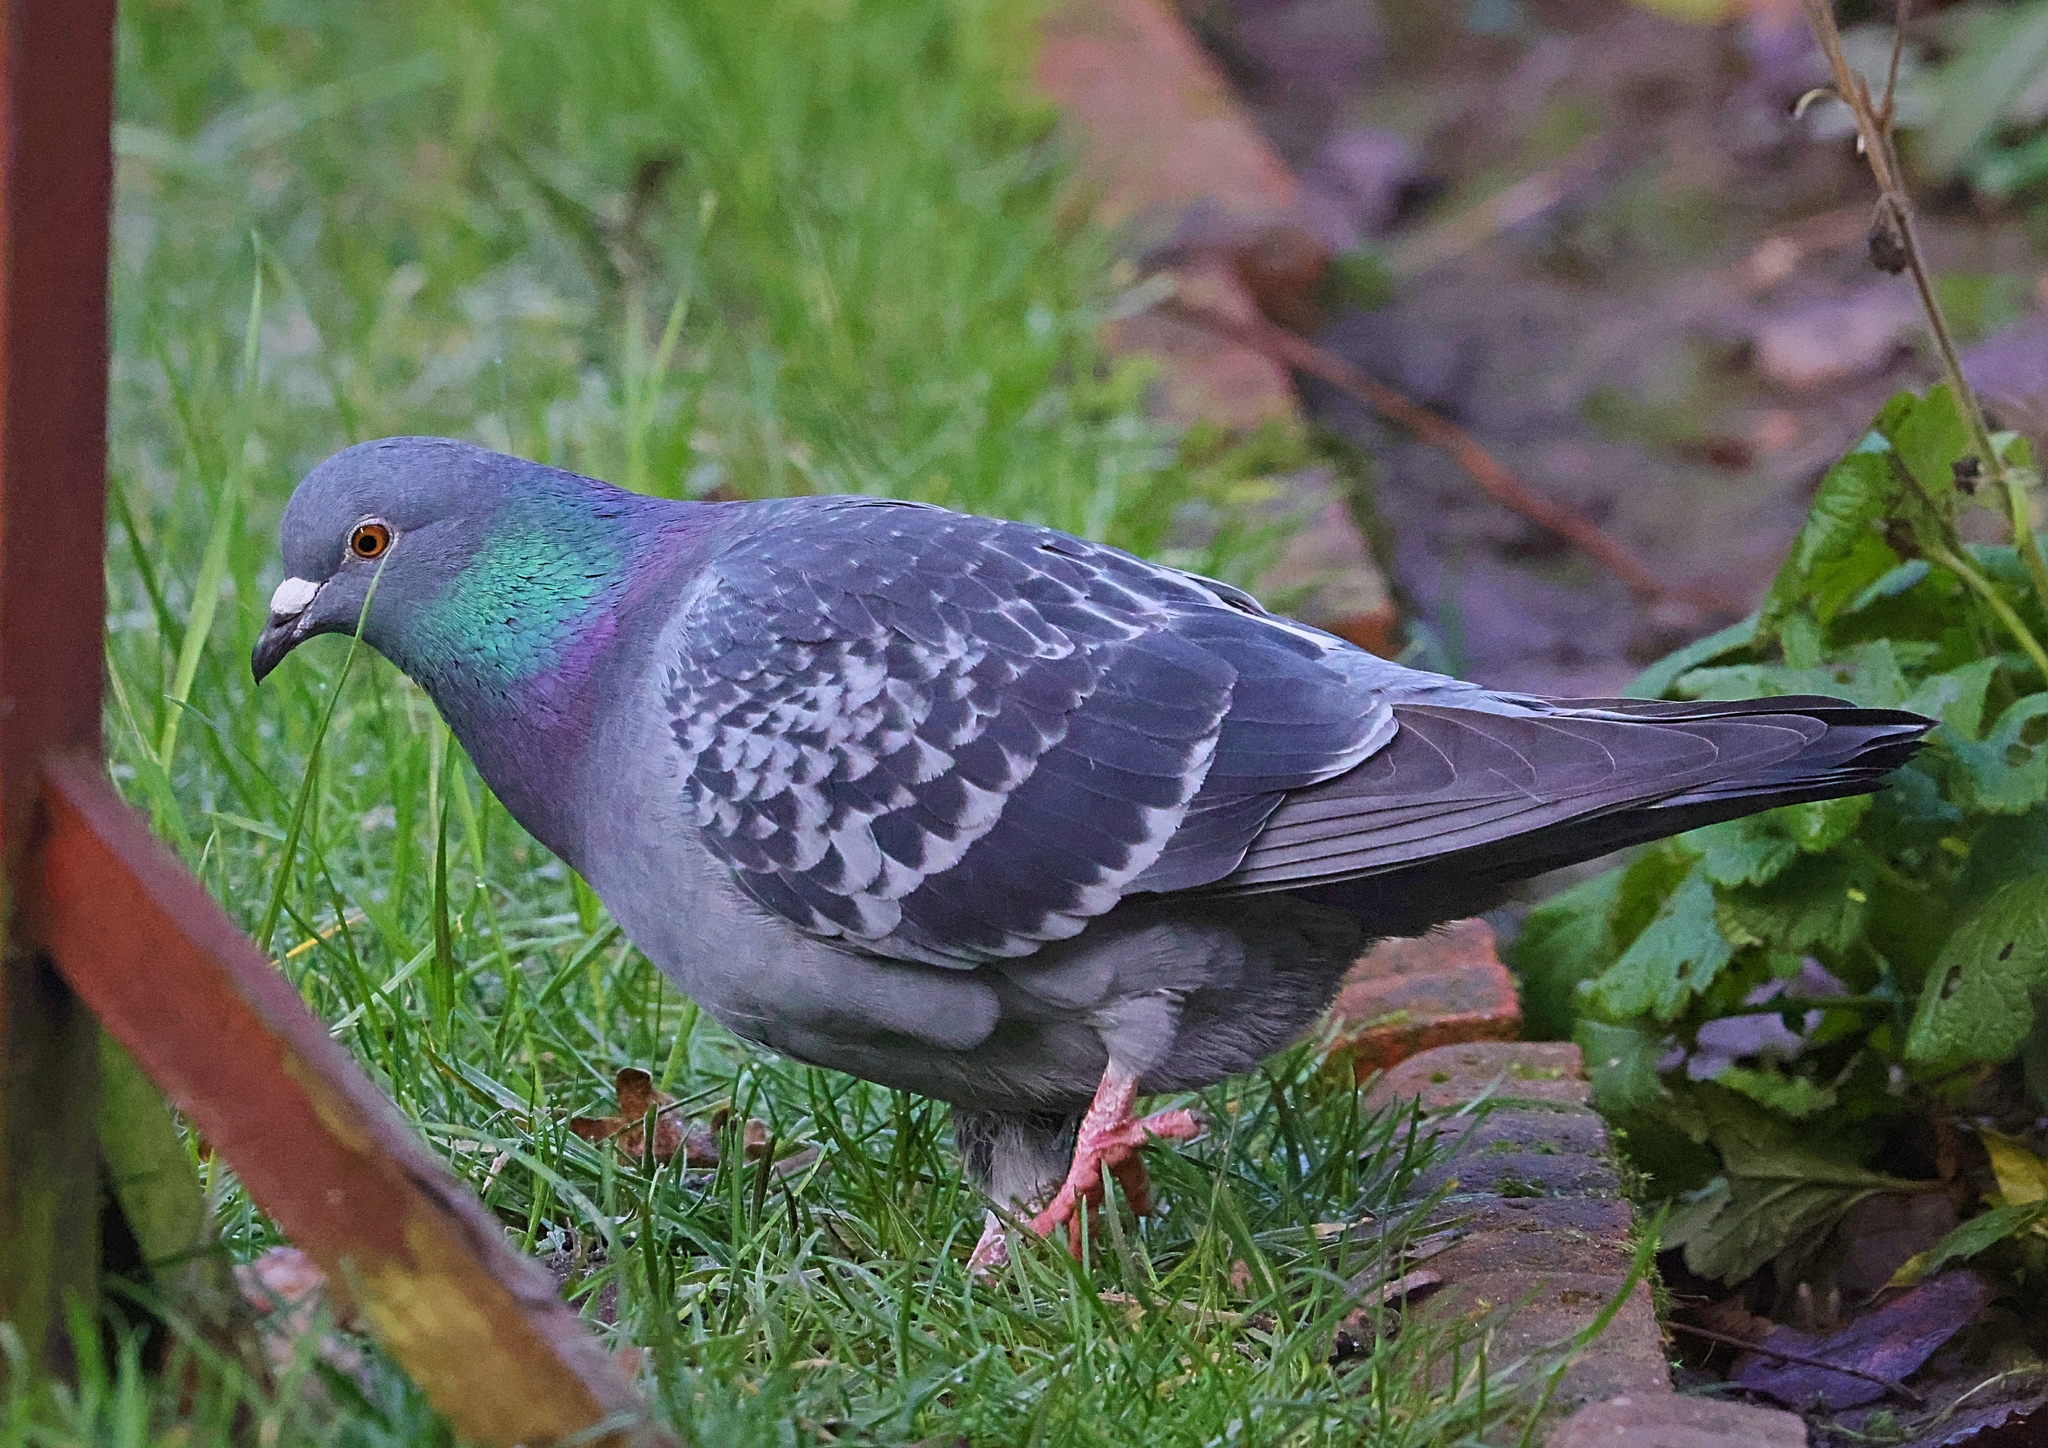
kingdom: Animalia
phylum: Chordata
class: Aves
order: Columbiformes
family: Columbidae
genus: Columba
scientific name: Columba livia
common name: Rock pigeon
